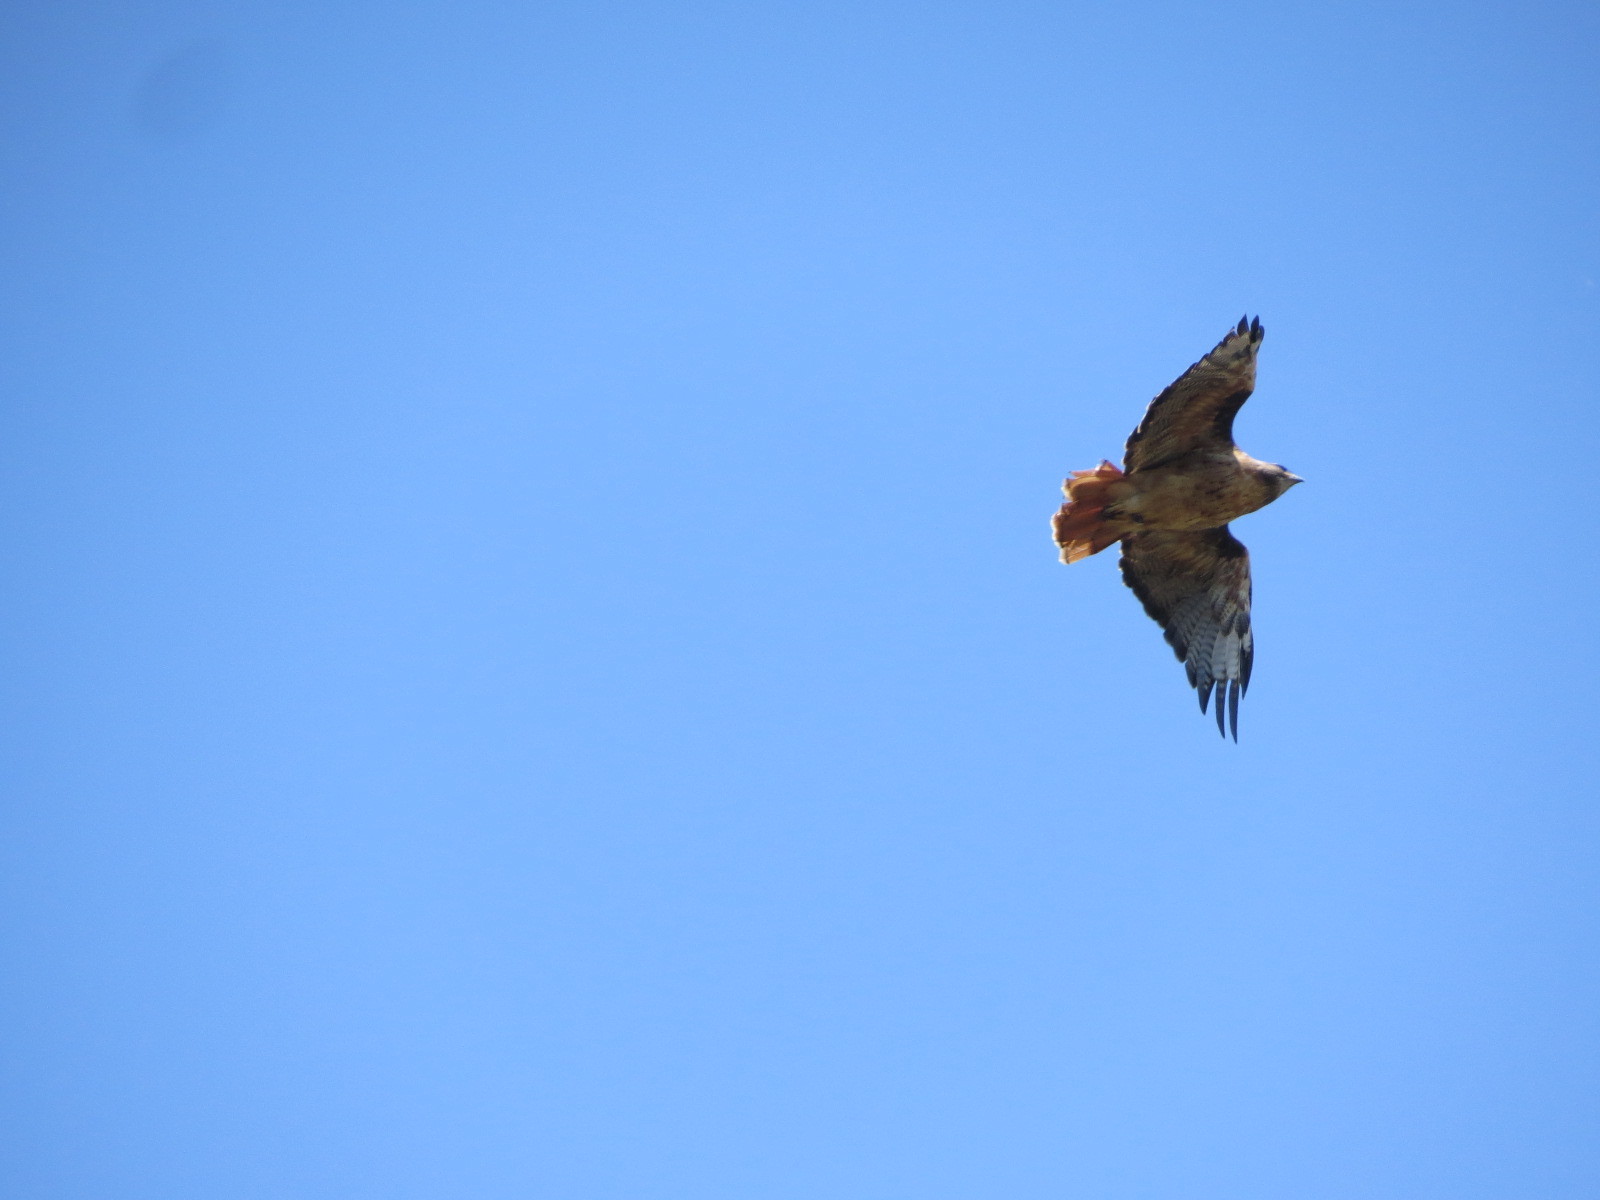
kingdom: Animalia
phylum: Chordata
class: Aves
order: Accipitriformes
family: Accipitridae
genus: Buteo
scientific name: Buteo jamaicensis
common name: Red-tailed hawk
